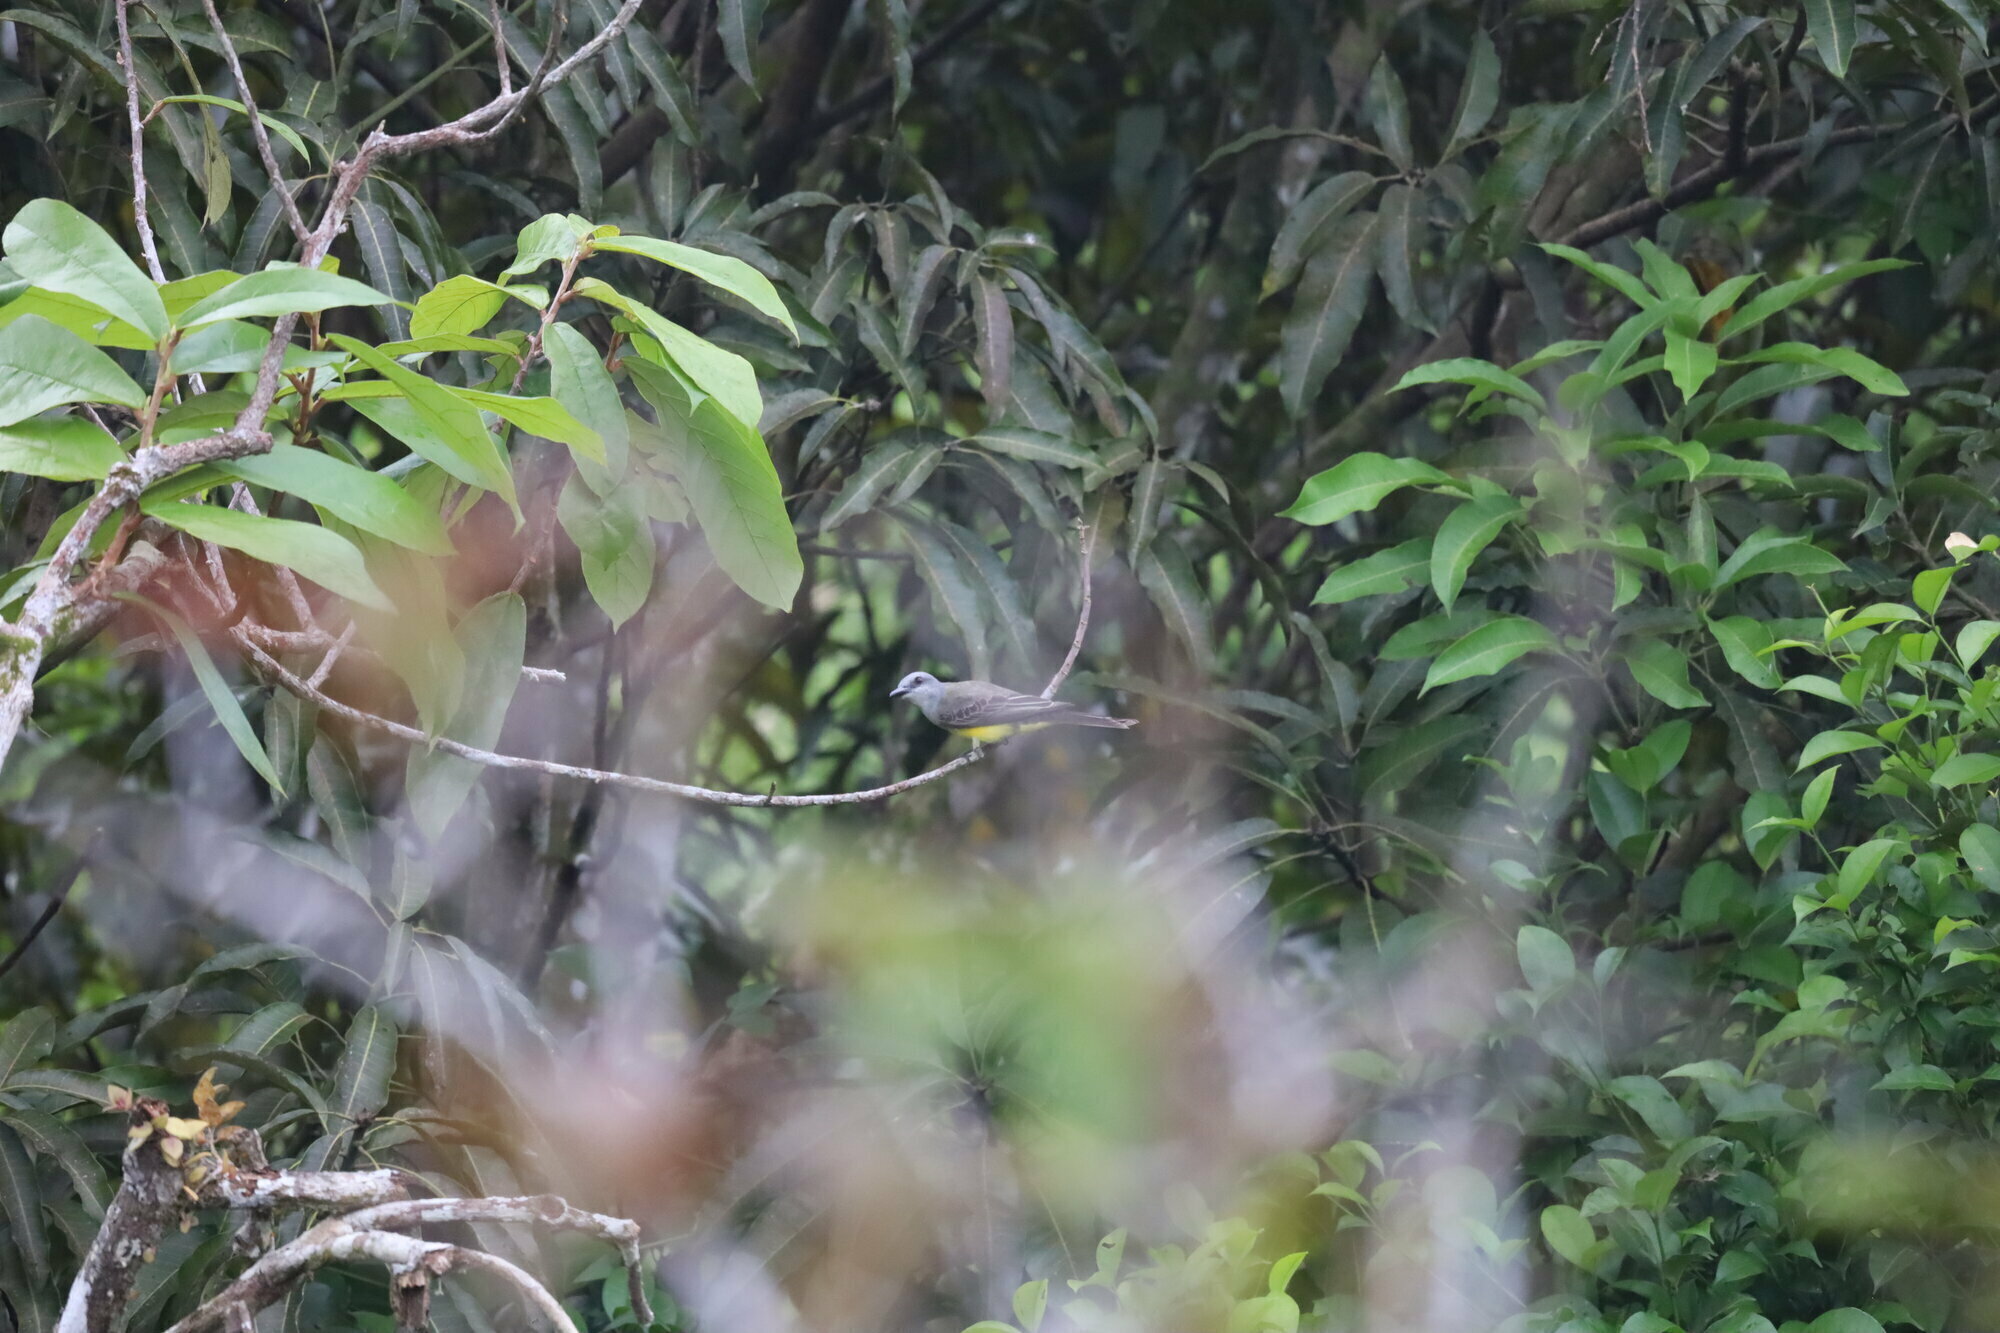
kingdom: Animalia
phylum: Chordata
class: Aves
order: Passeriformes
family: Tyrannidae
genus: Tyrannus
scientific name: Tyrannus melancholicus
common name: Tropical kingbird
